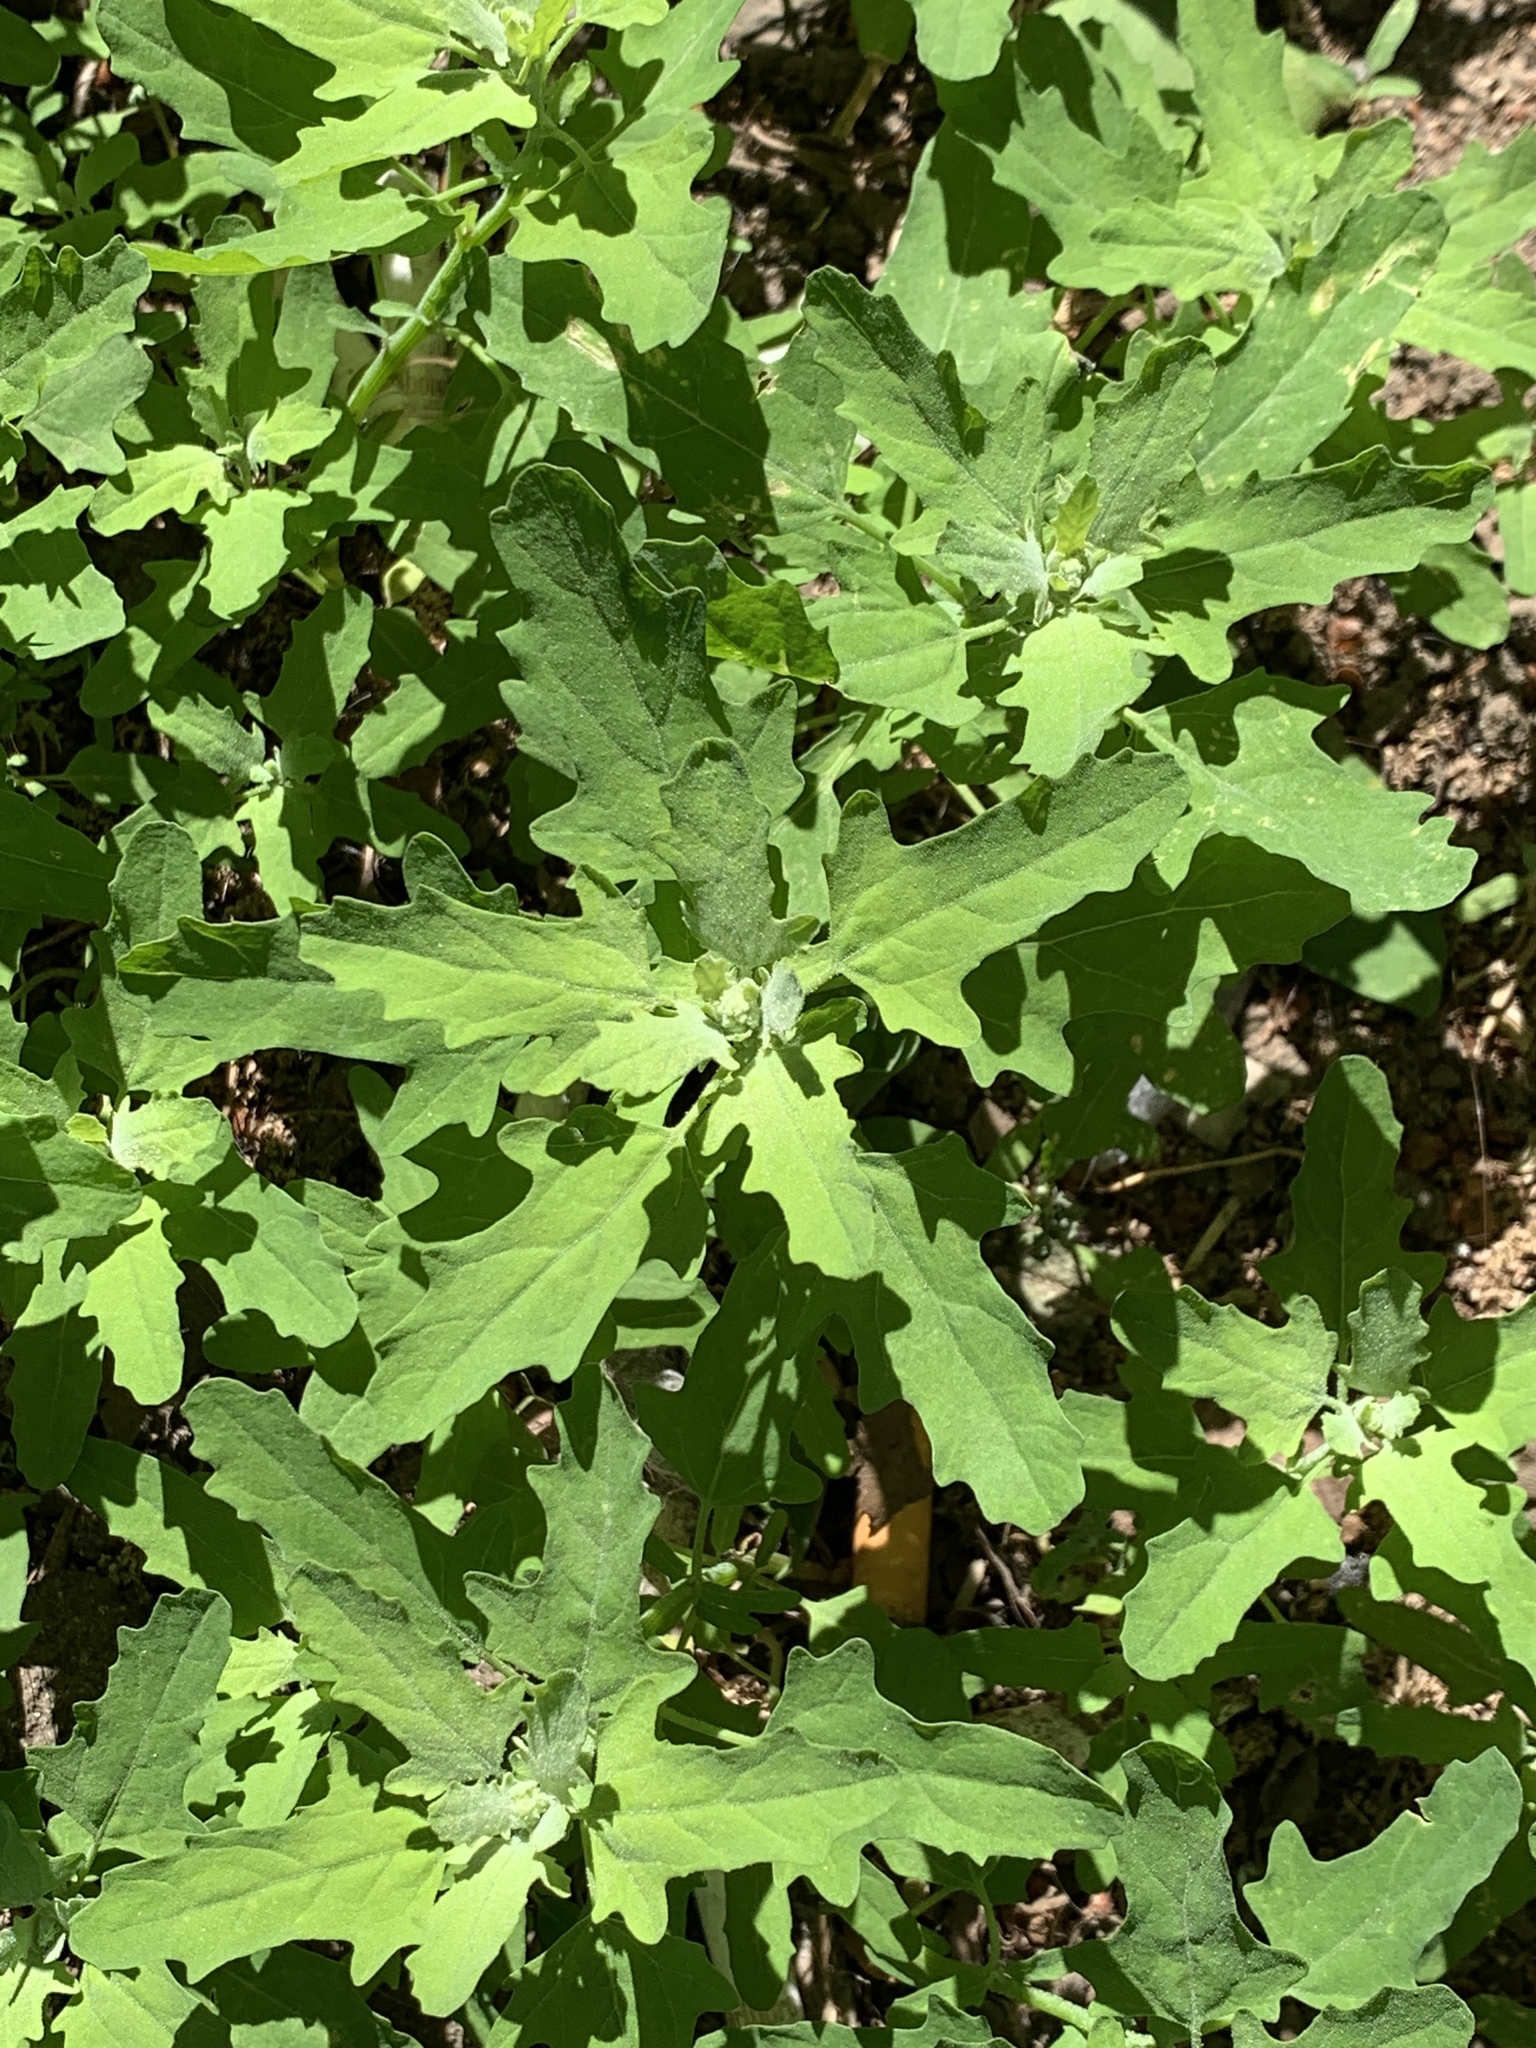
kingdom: Plantae
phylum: Tracheophyta
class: Magnoliopsida
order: Caryophyllales
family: Amaranthaceae
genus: Chenopodium
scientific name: Chenopodium album
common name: Fat-hen
